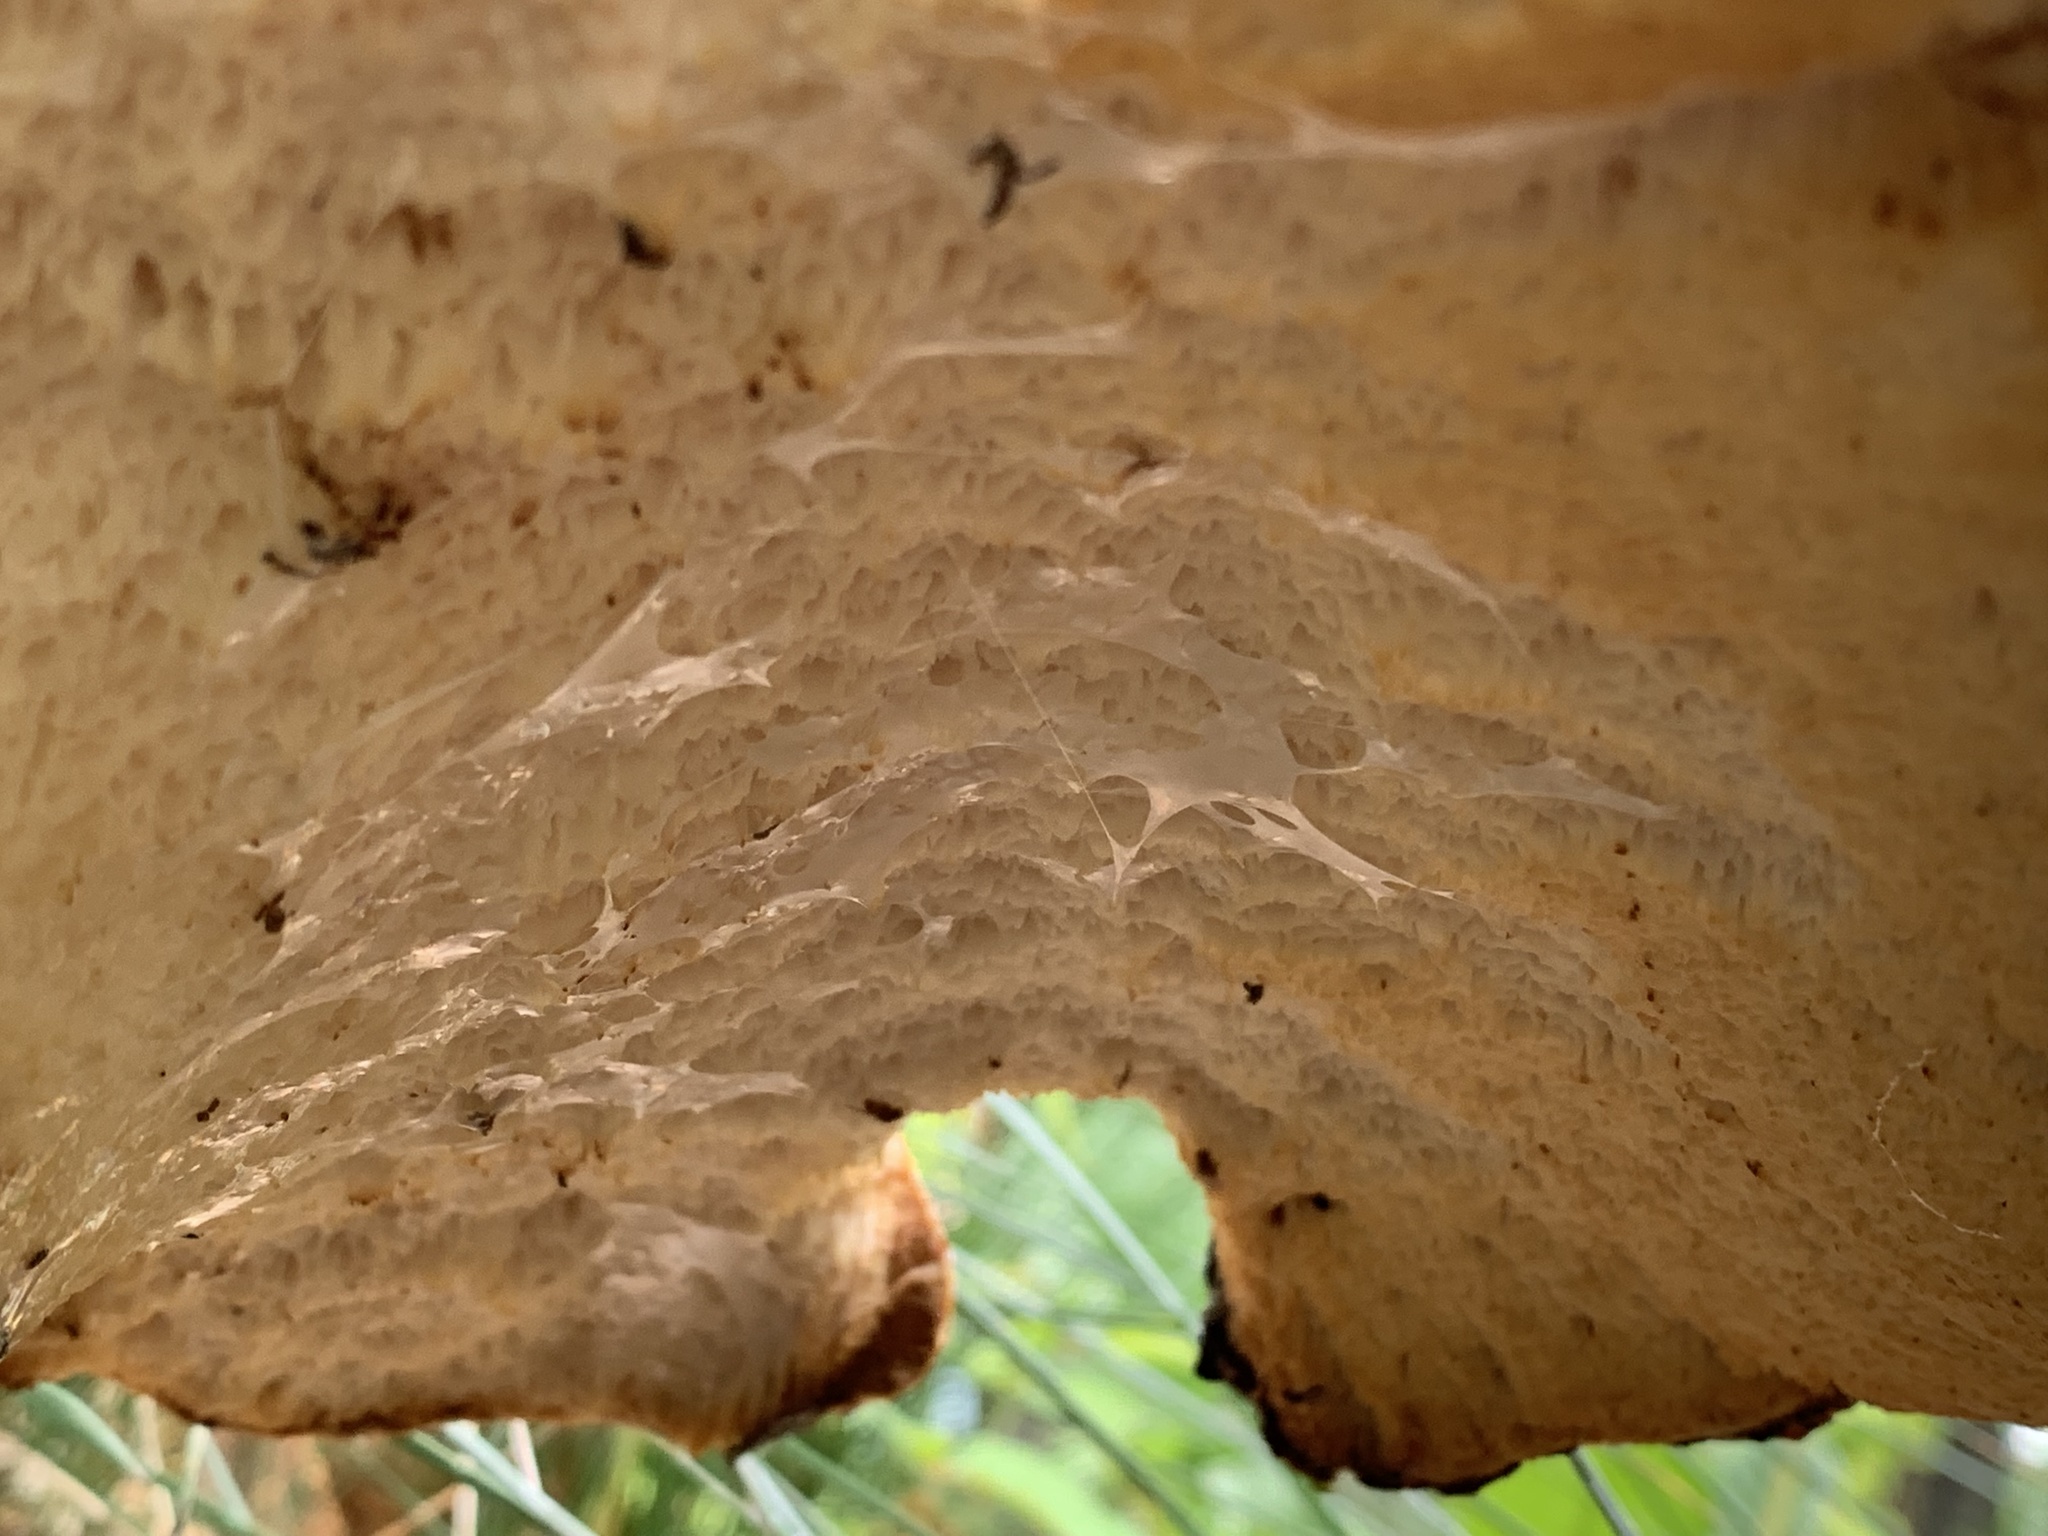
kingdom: Fungi
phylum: Basidiomycota
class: Agaricomycetes
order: Polyporales
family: Polyporaceae
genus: Cerioporus
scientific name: Cerioporus squamosus
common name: Dryad's saddle
